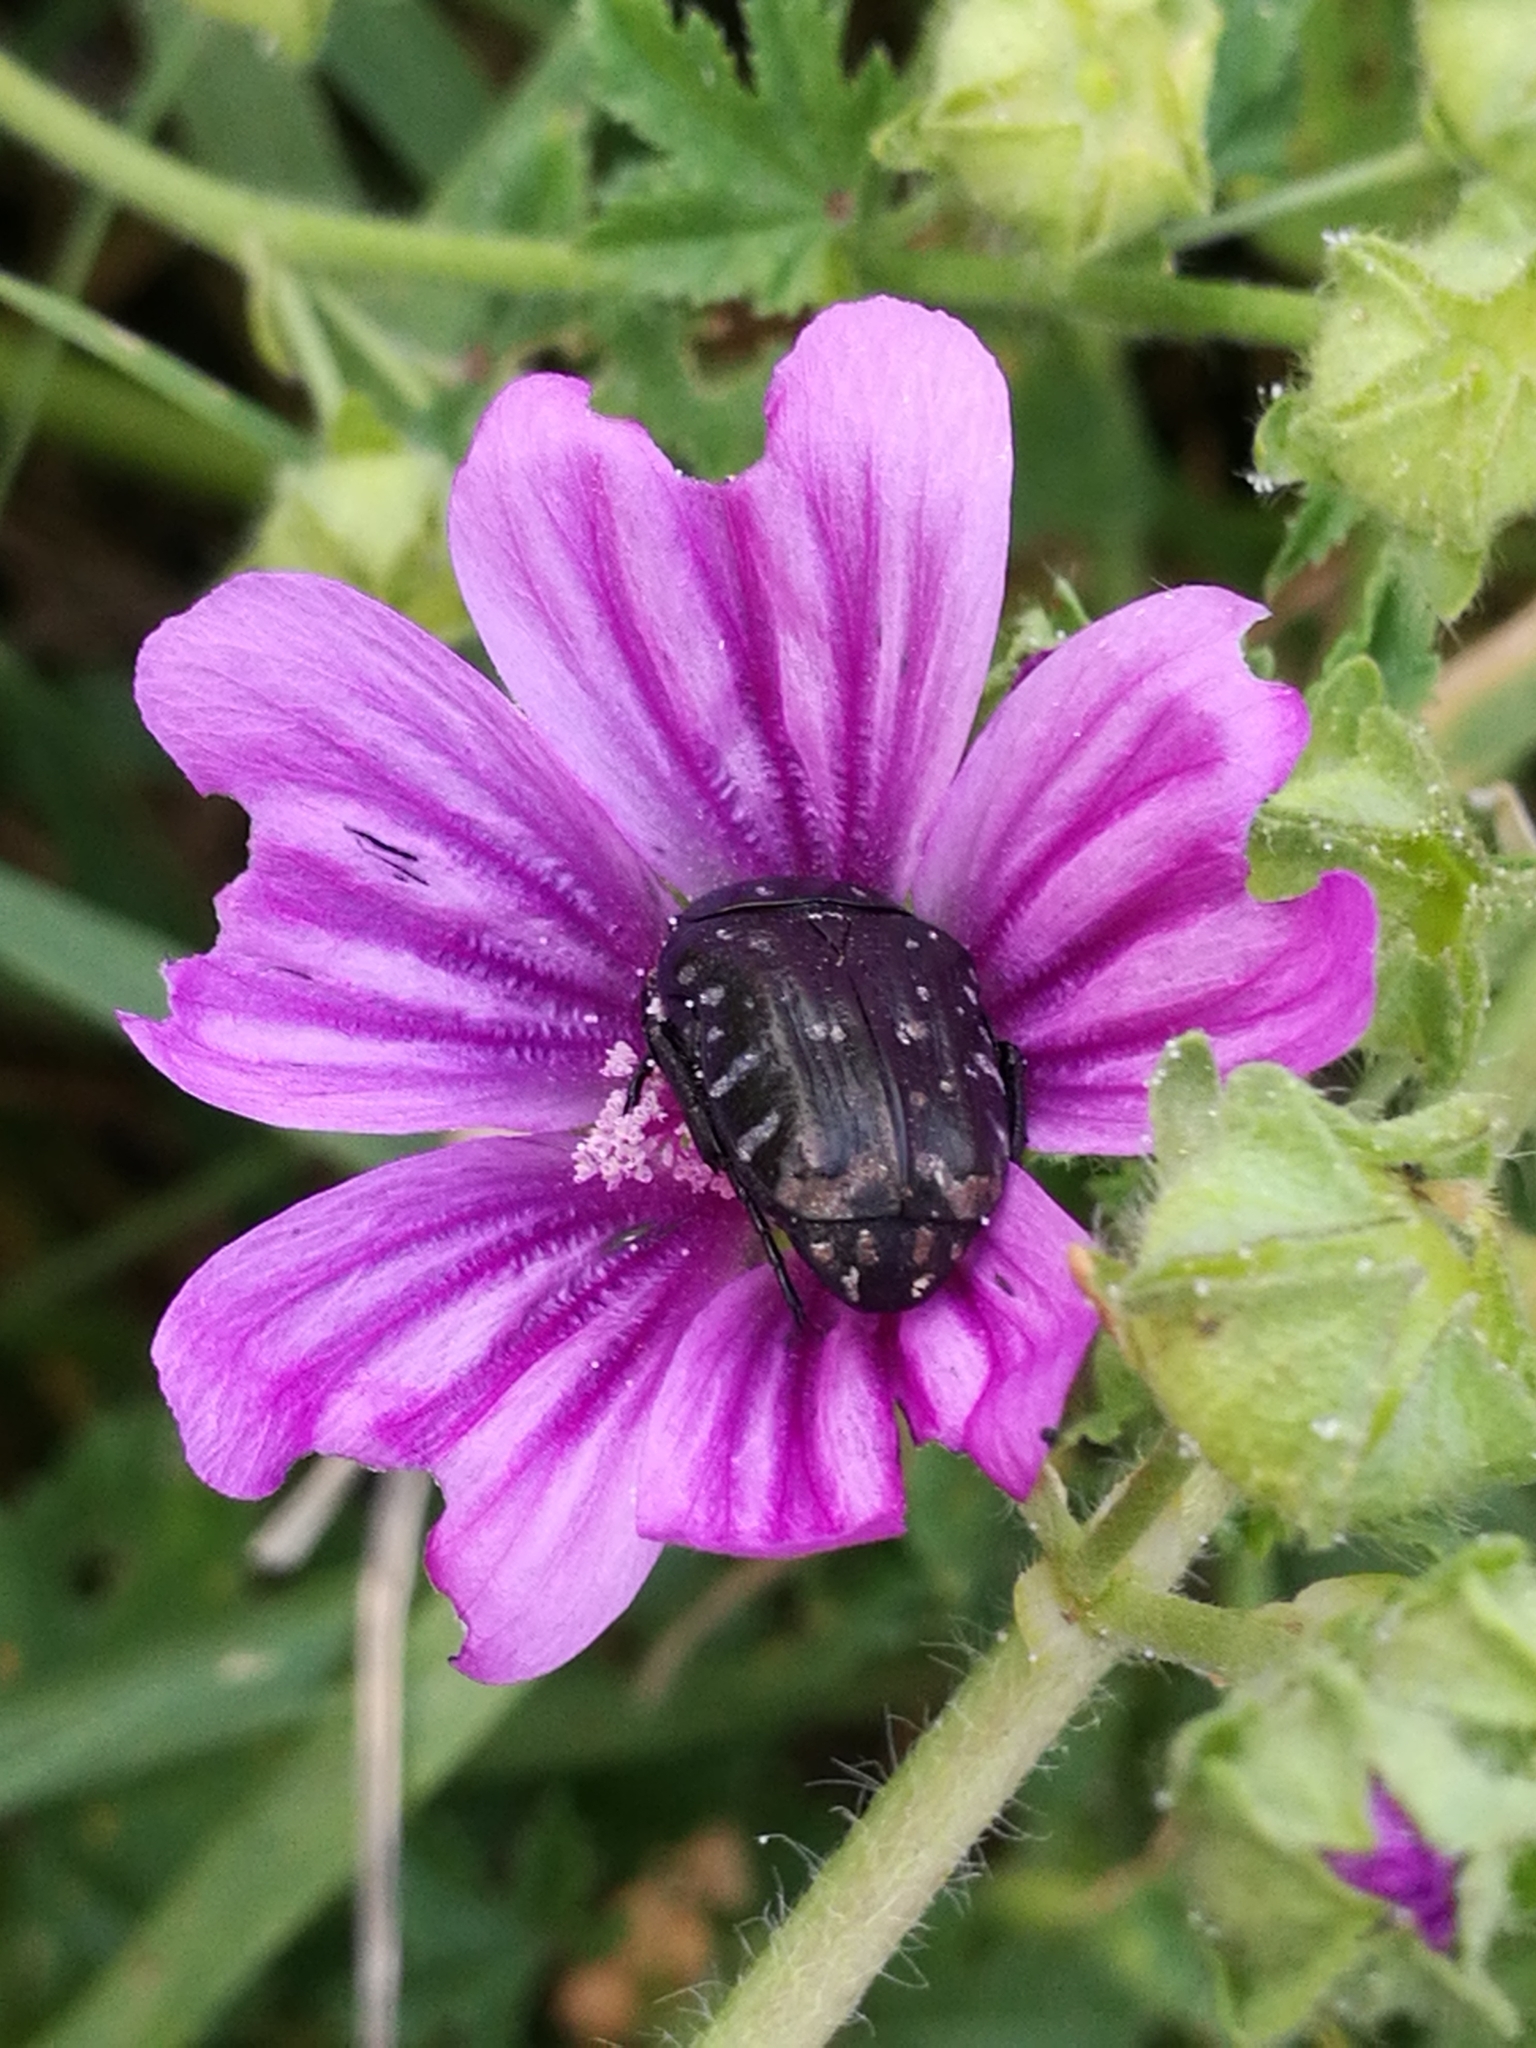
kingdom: Animalia
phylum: Arthropoda
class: Insecta
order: Coleoptera
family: Scarabaeidae
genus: Oxythyrea
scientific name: Oxythyrea funesta
